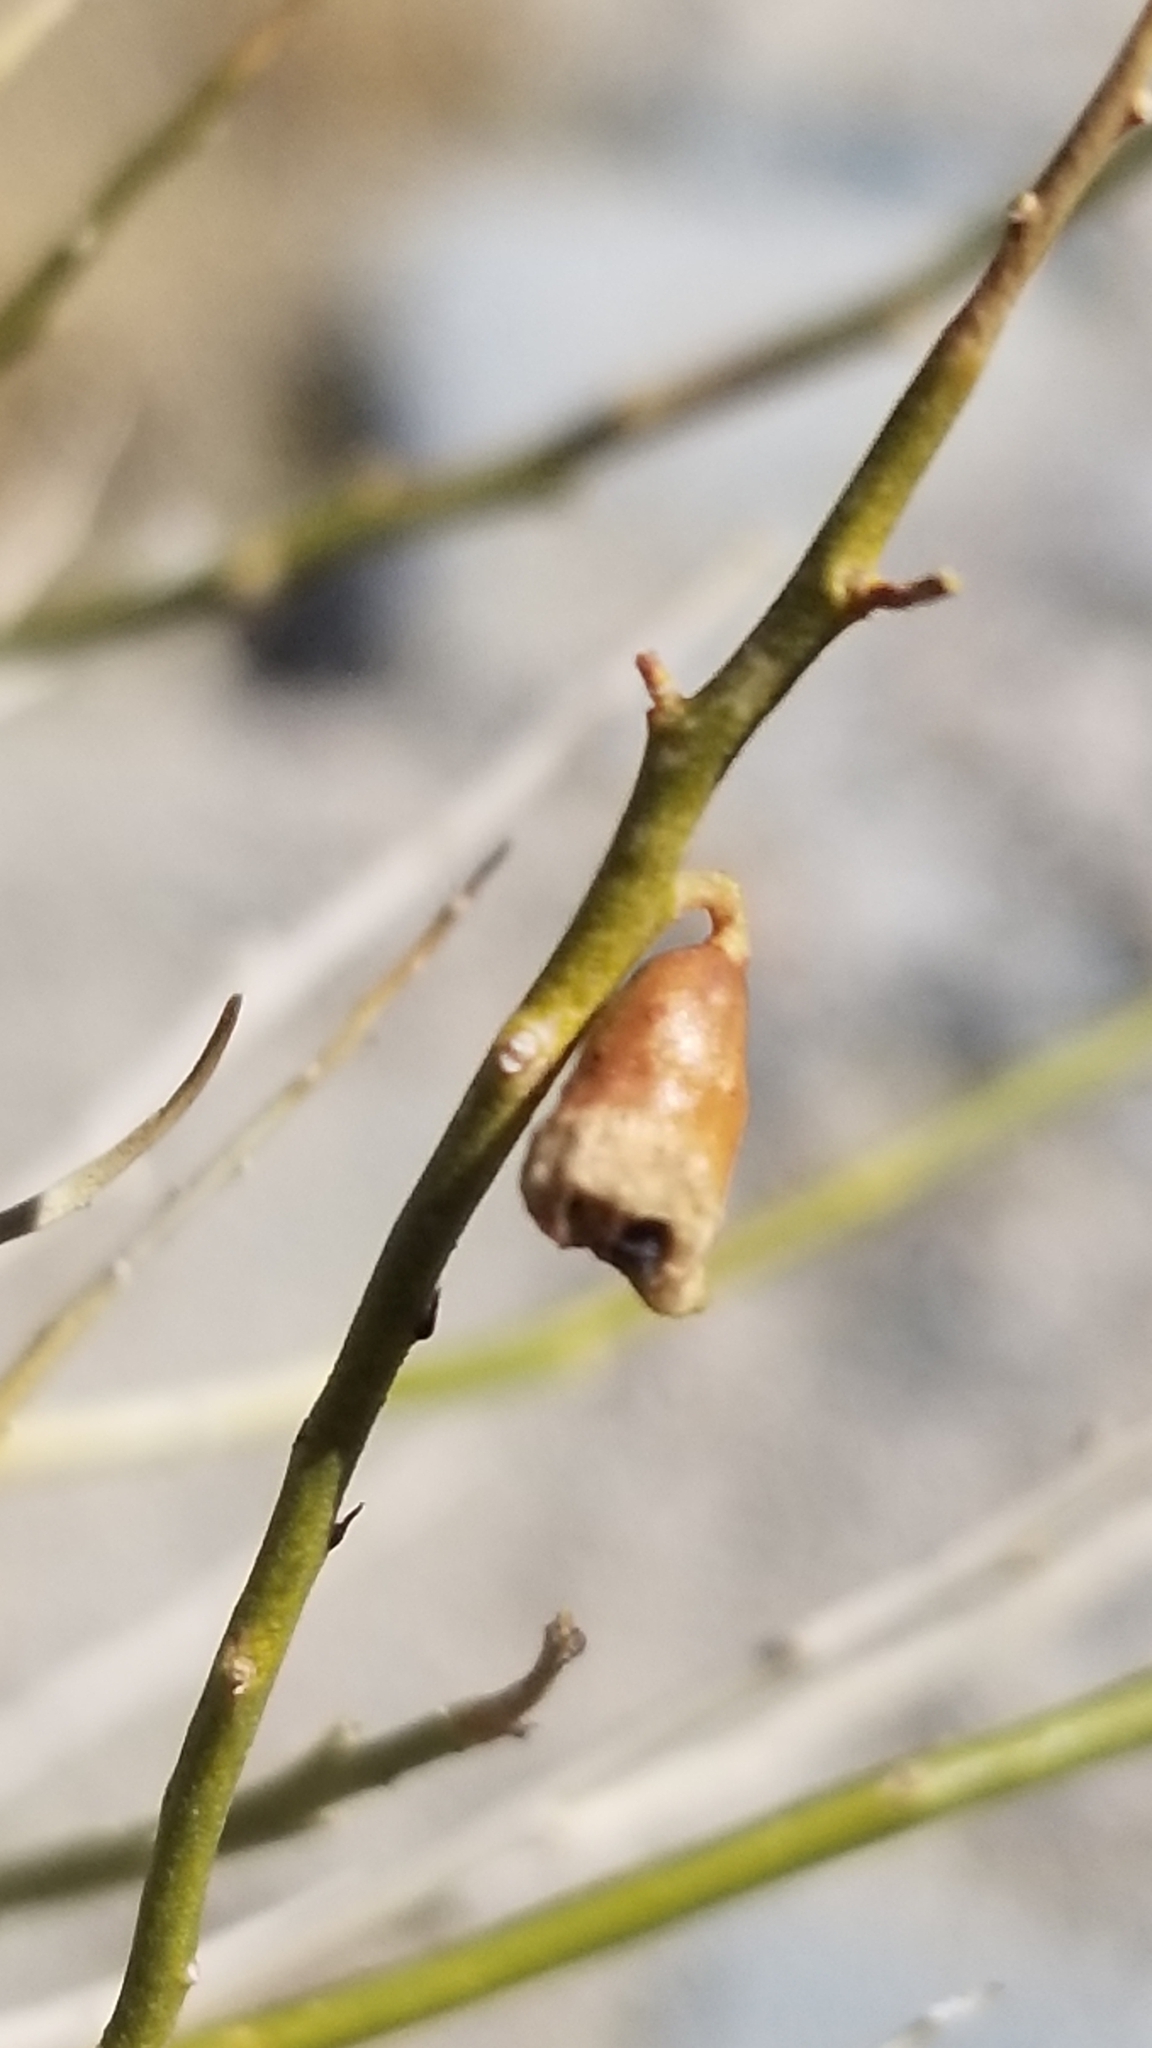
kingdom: Plantae
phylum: Tracheophyta
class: Magnoliopsida
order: Fabales
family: Fabaceae
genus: Psorothamnus
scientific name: Psorothamnus schottii
